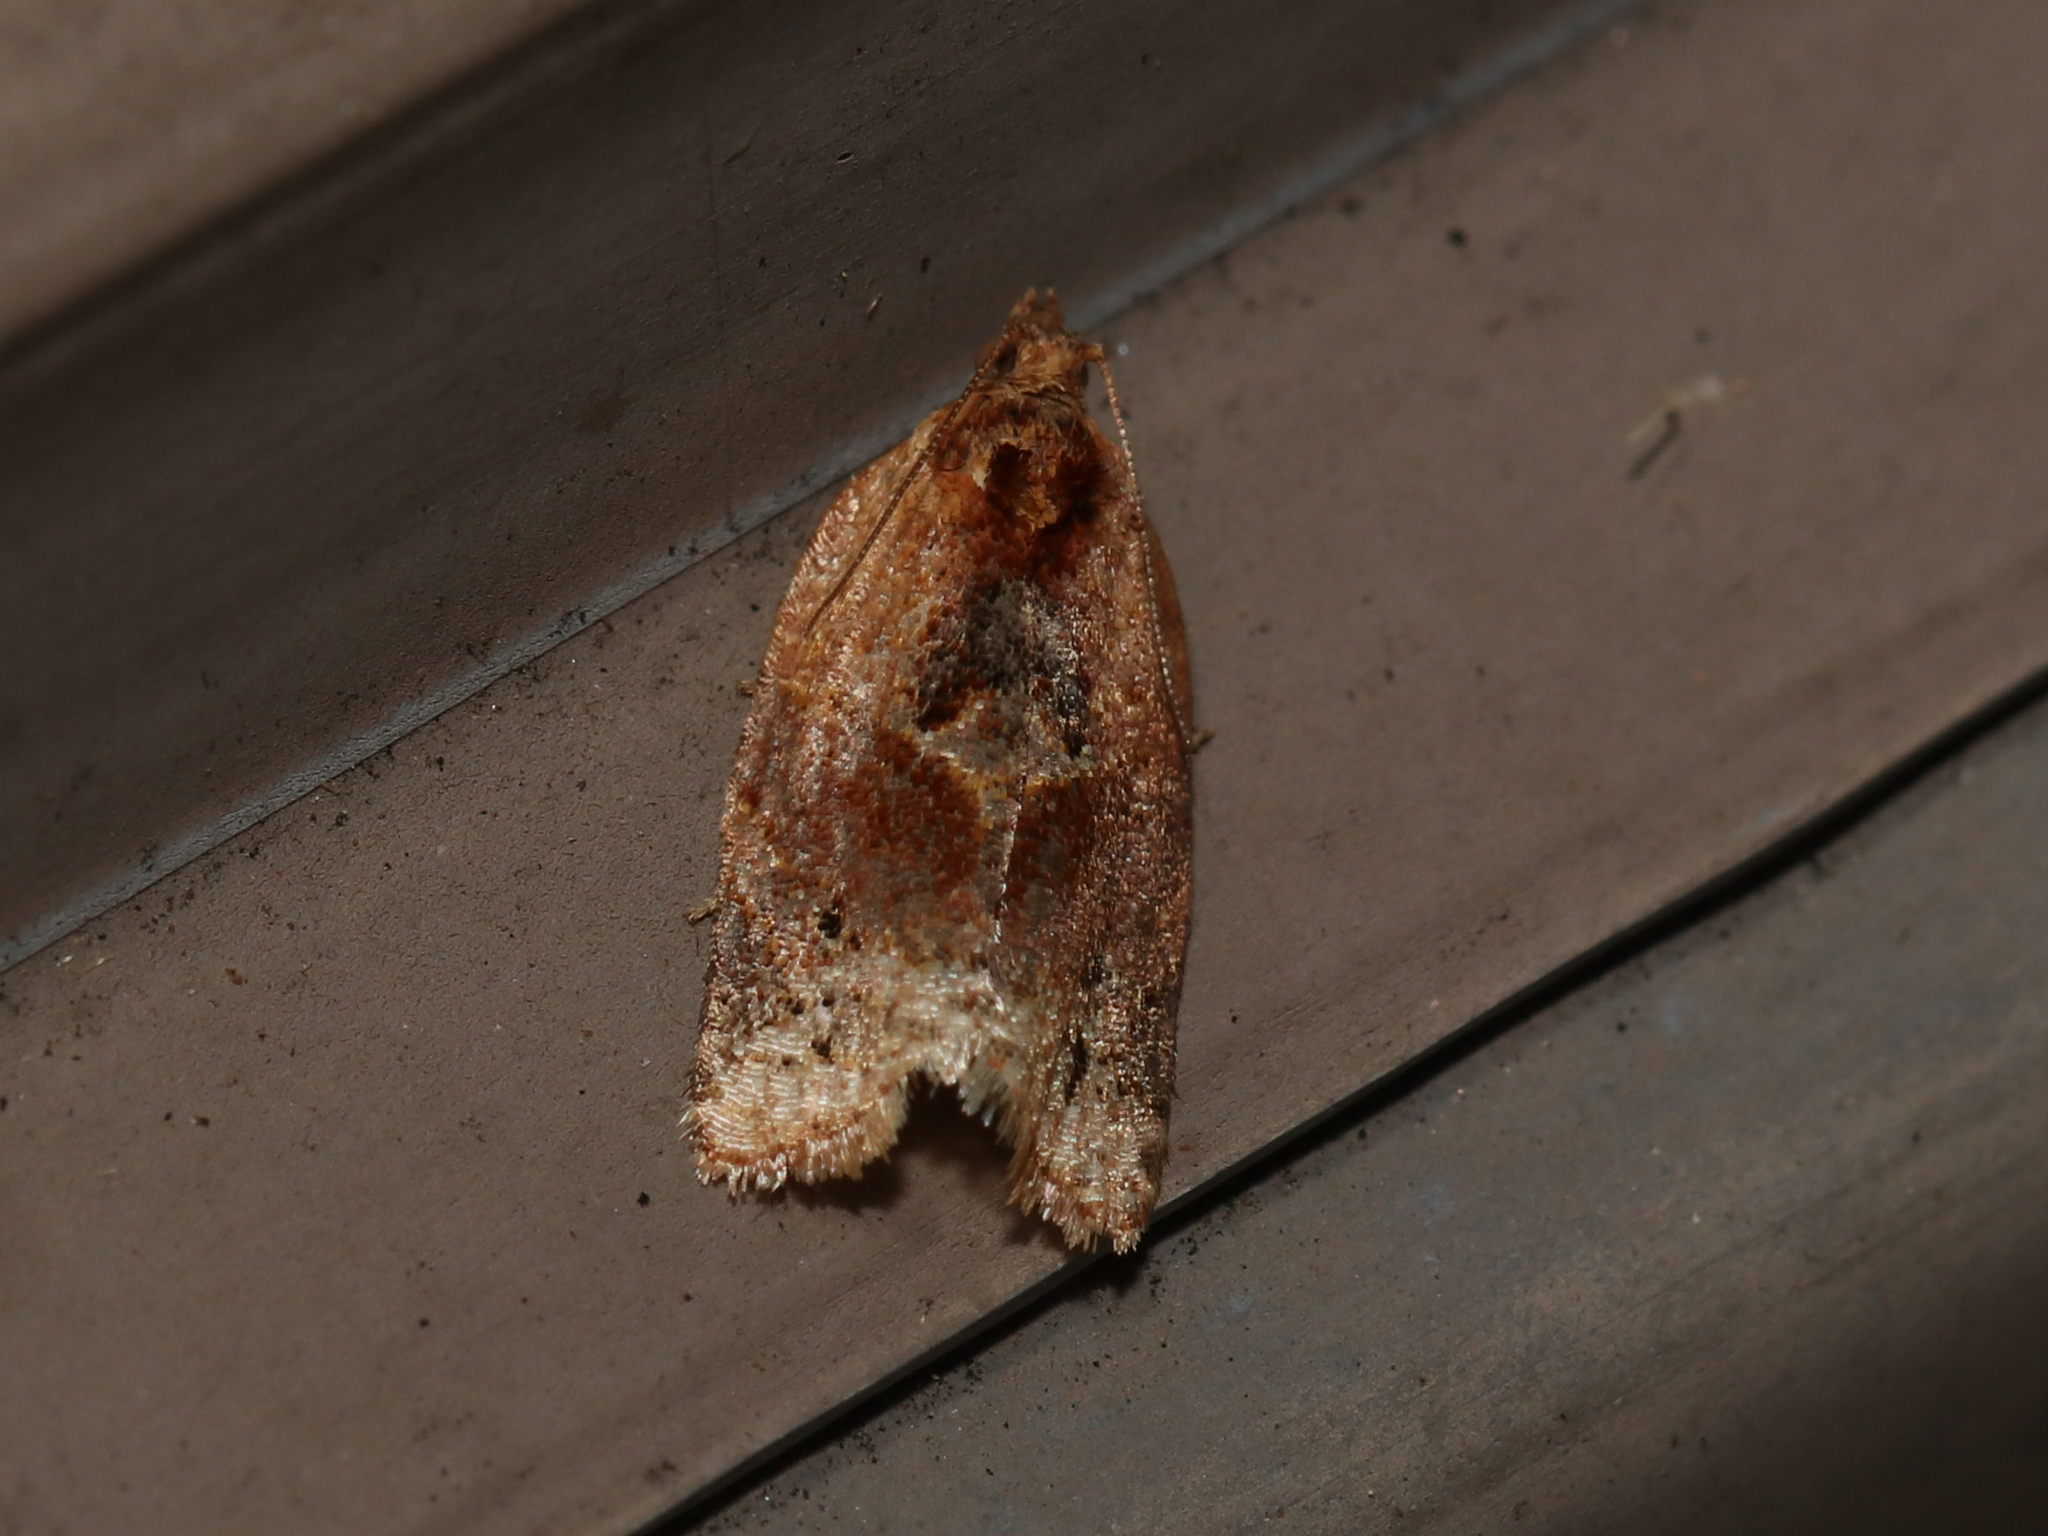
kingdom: Animalia
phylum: Arthropoda
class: Insecta
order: Lepidoptera
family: Tortricidae
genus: Argyrotaenia
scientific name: Argyrotaenia velutinana
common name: Red-banded leafroller moth
